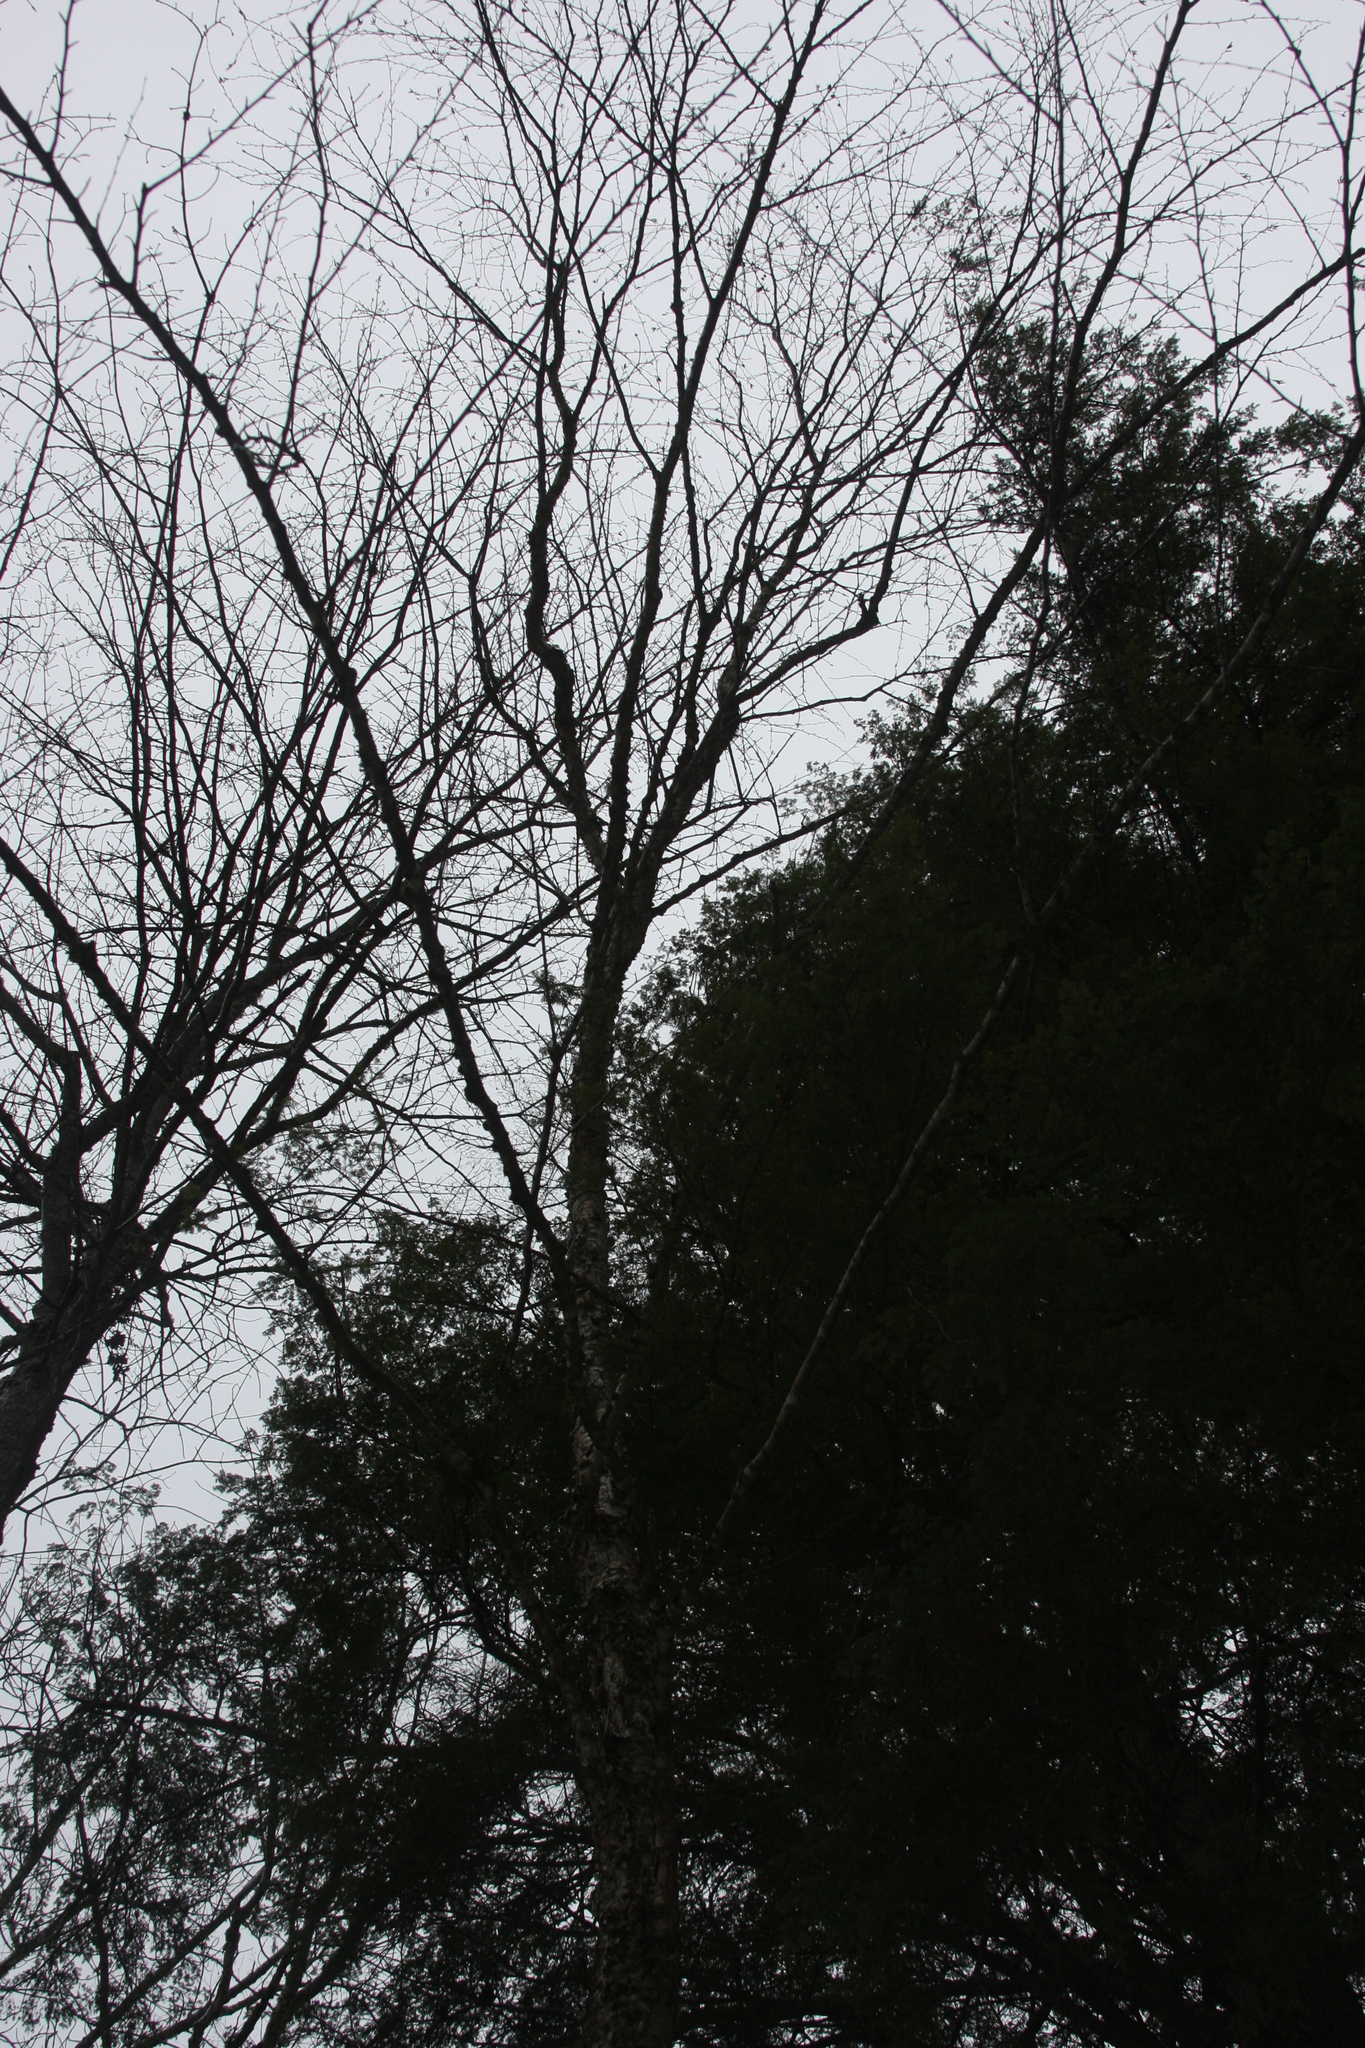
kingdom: Plantae
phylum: Tracheophyta
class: Magnoliopsida
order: Fagales
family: Betulaceae
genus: Betula
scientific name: Betula alleghaniensis
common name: Yellow birch
